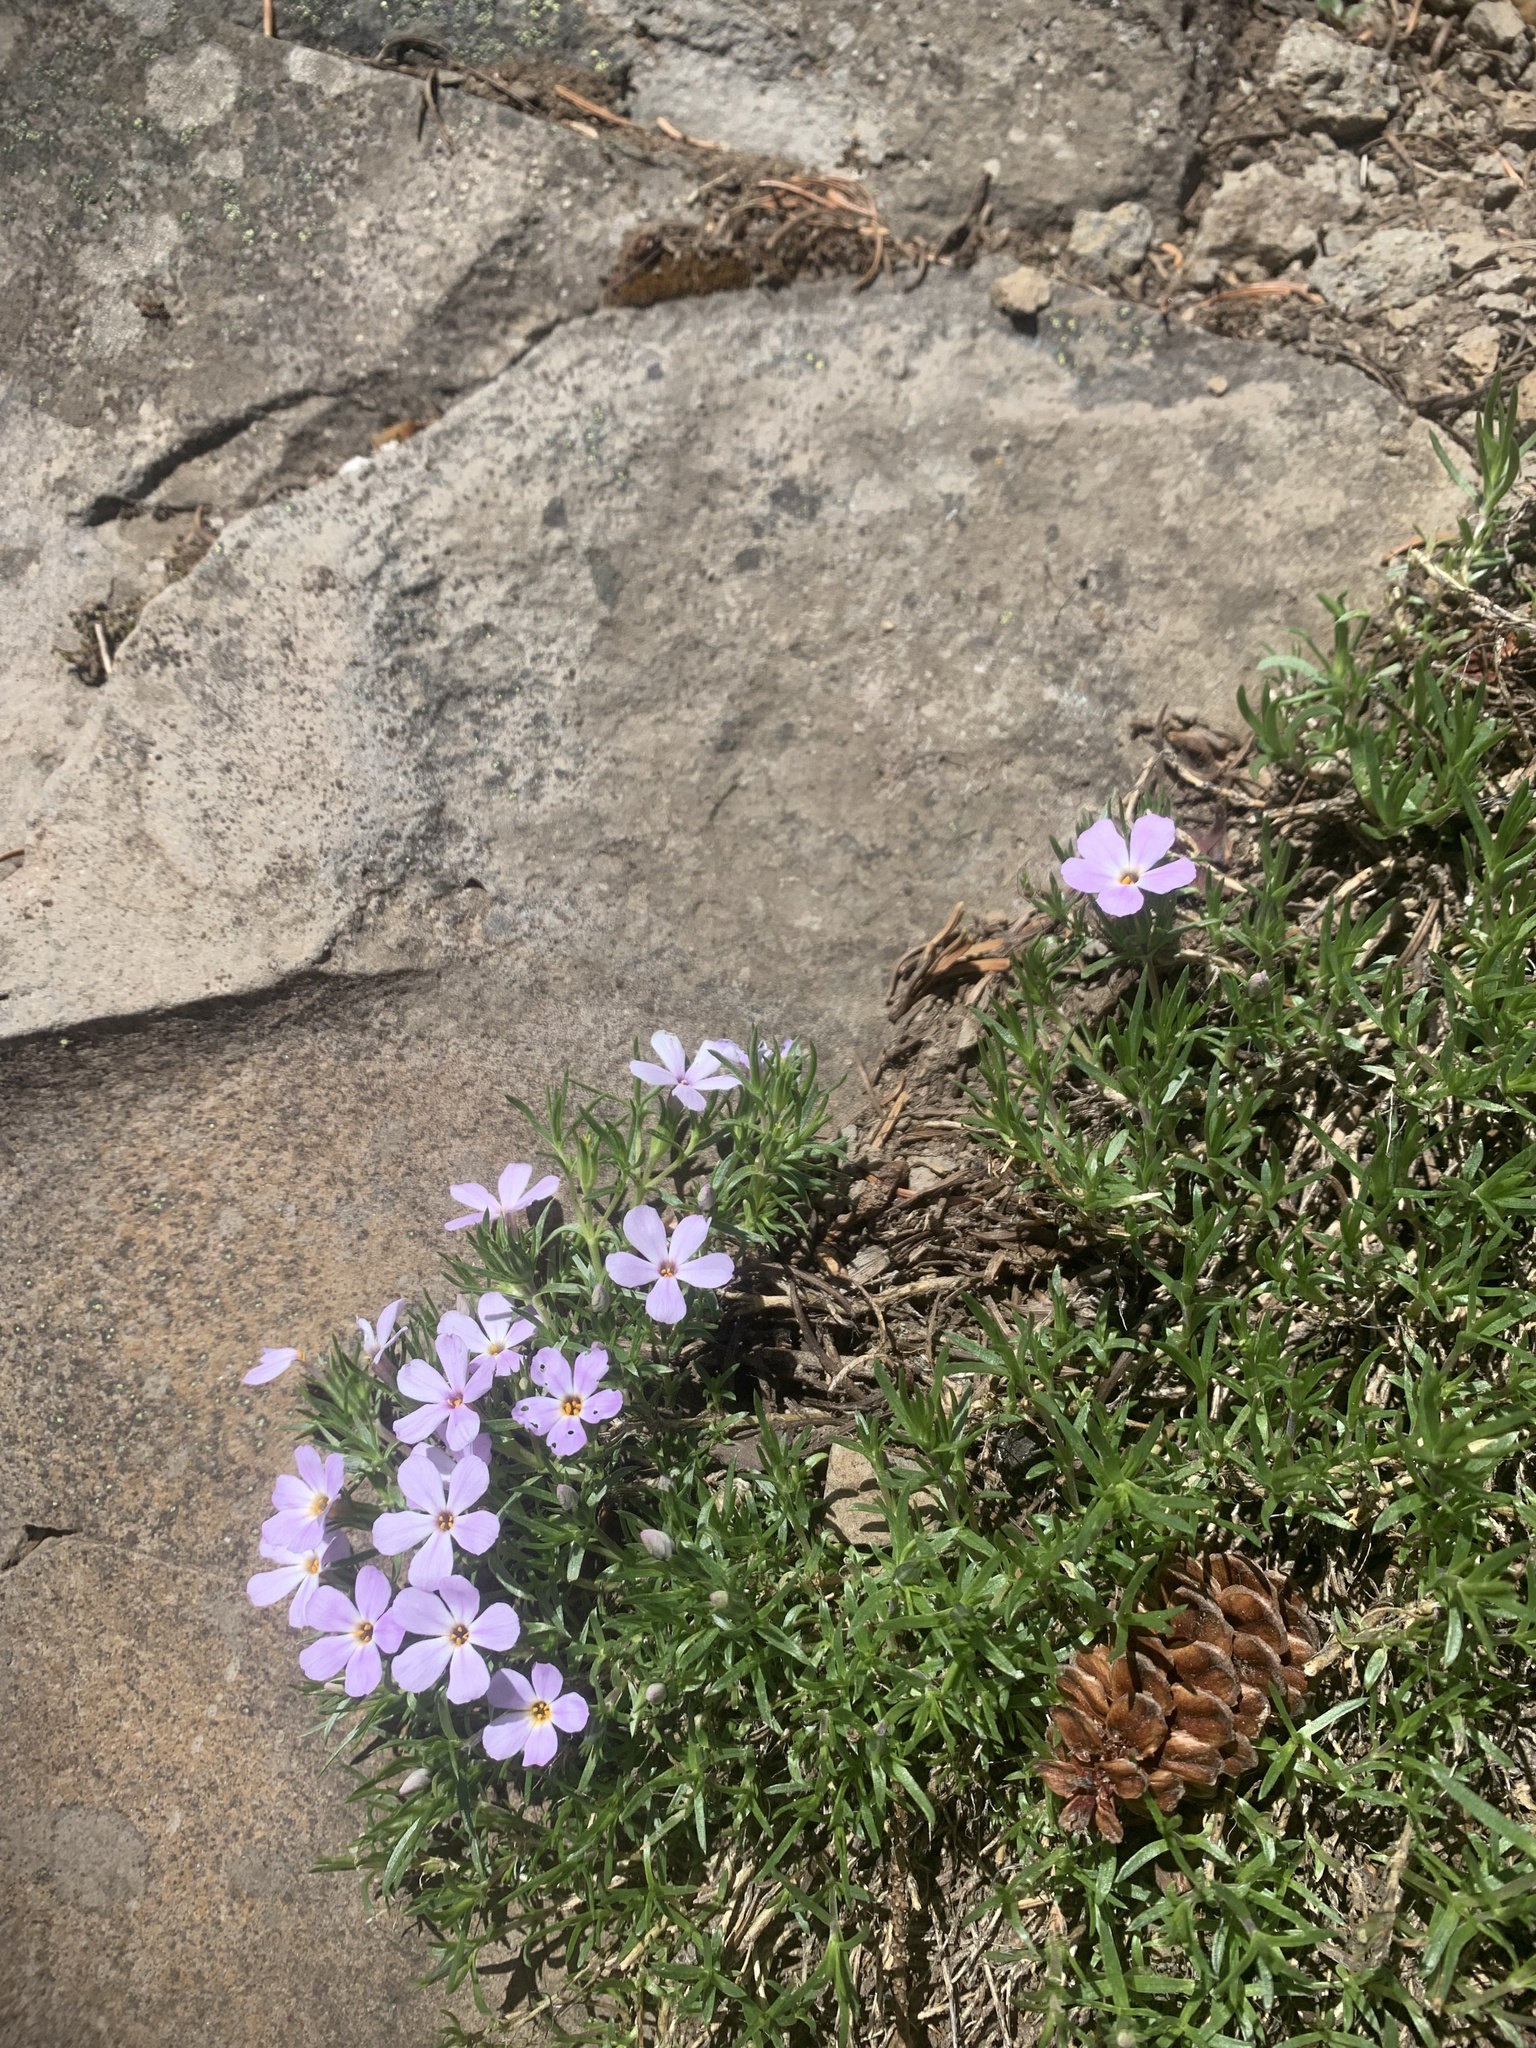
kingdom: Plantae
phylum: Tracheophyta
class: Magnoliopsida
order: Ericales
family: Polemoniaceae
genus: Phlox
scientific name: Phlox diffusa
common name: Mat phlox
